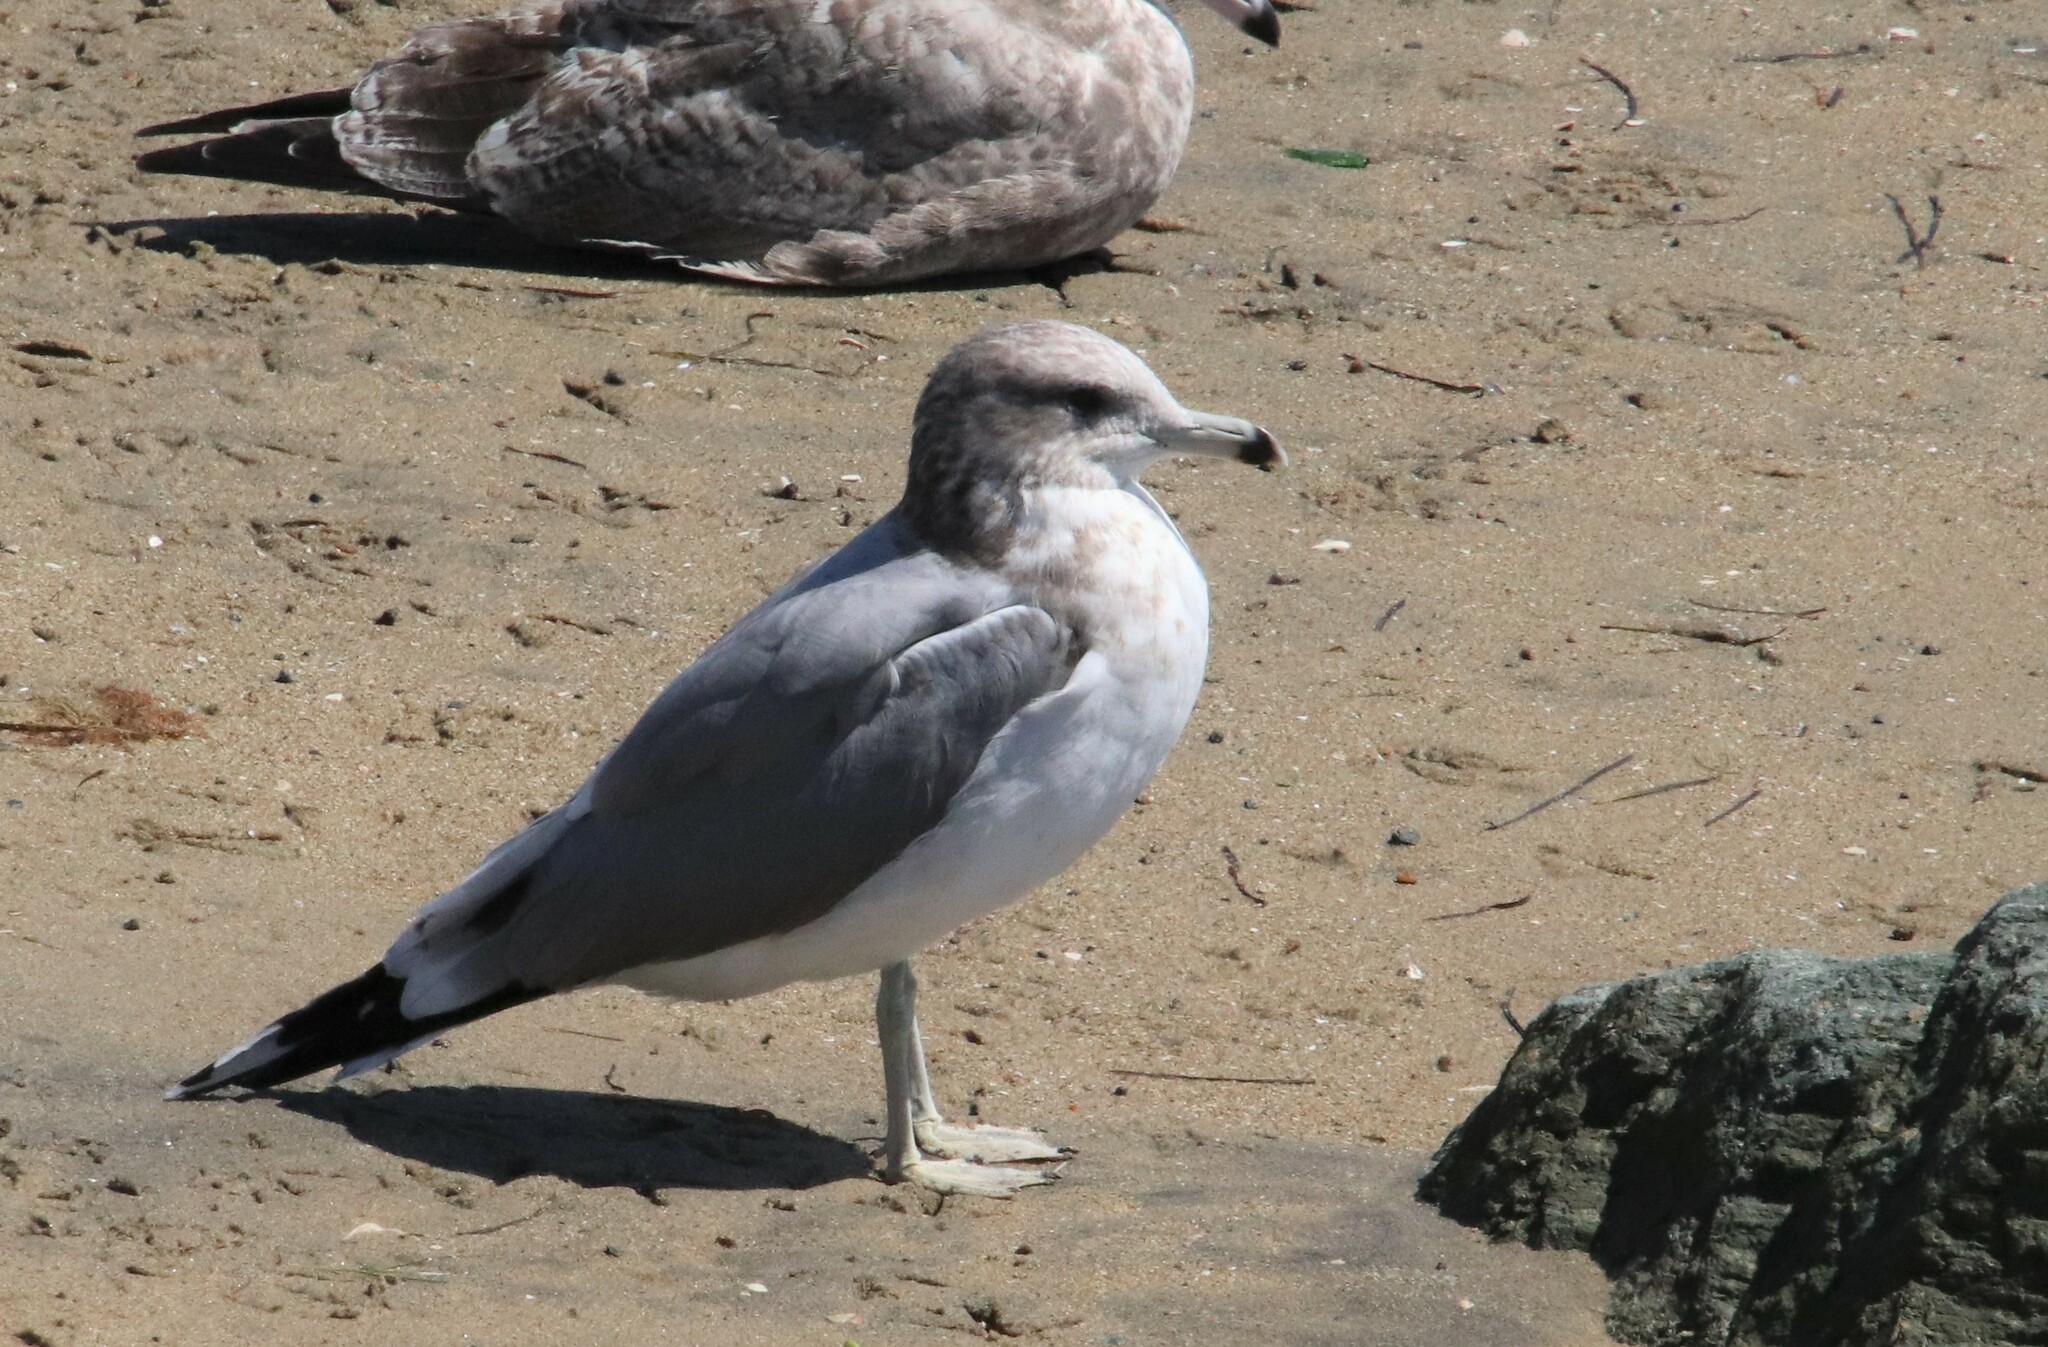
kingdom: Animalia
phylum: Chordata
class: Aves
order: Charadriiformes
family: Laridae
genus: Larus
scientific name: Larus californicus
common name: California gull
